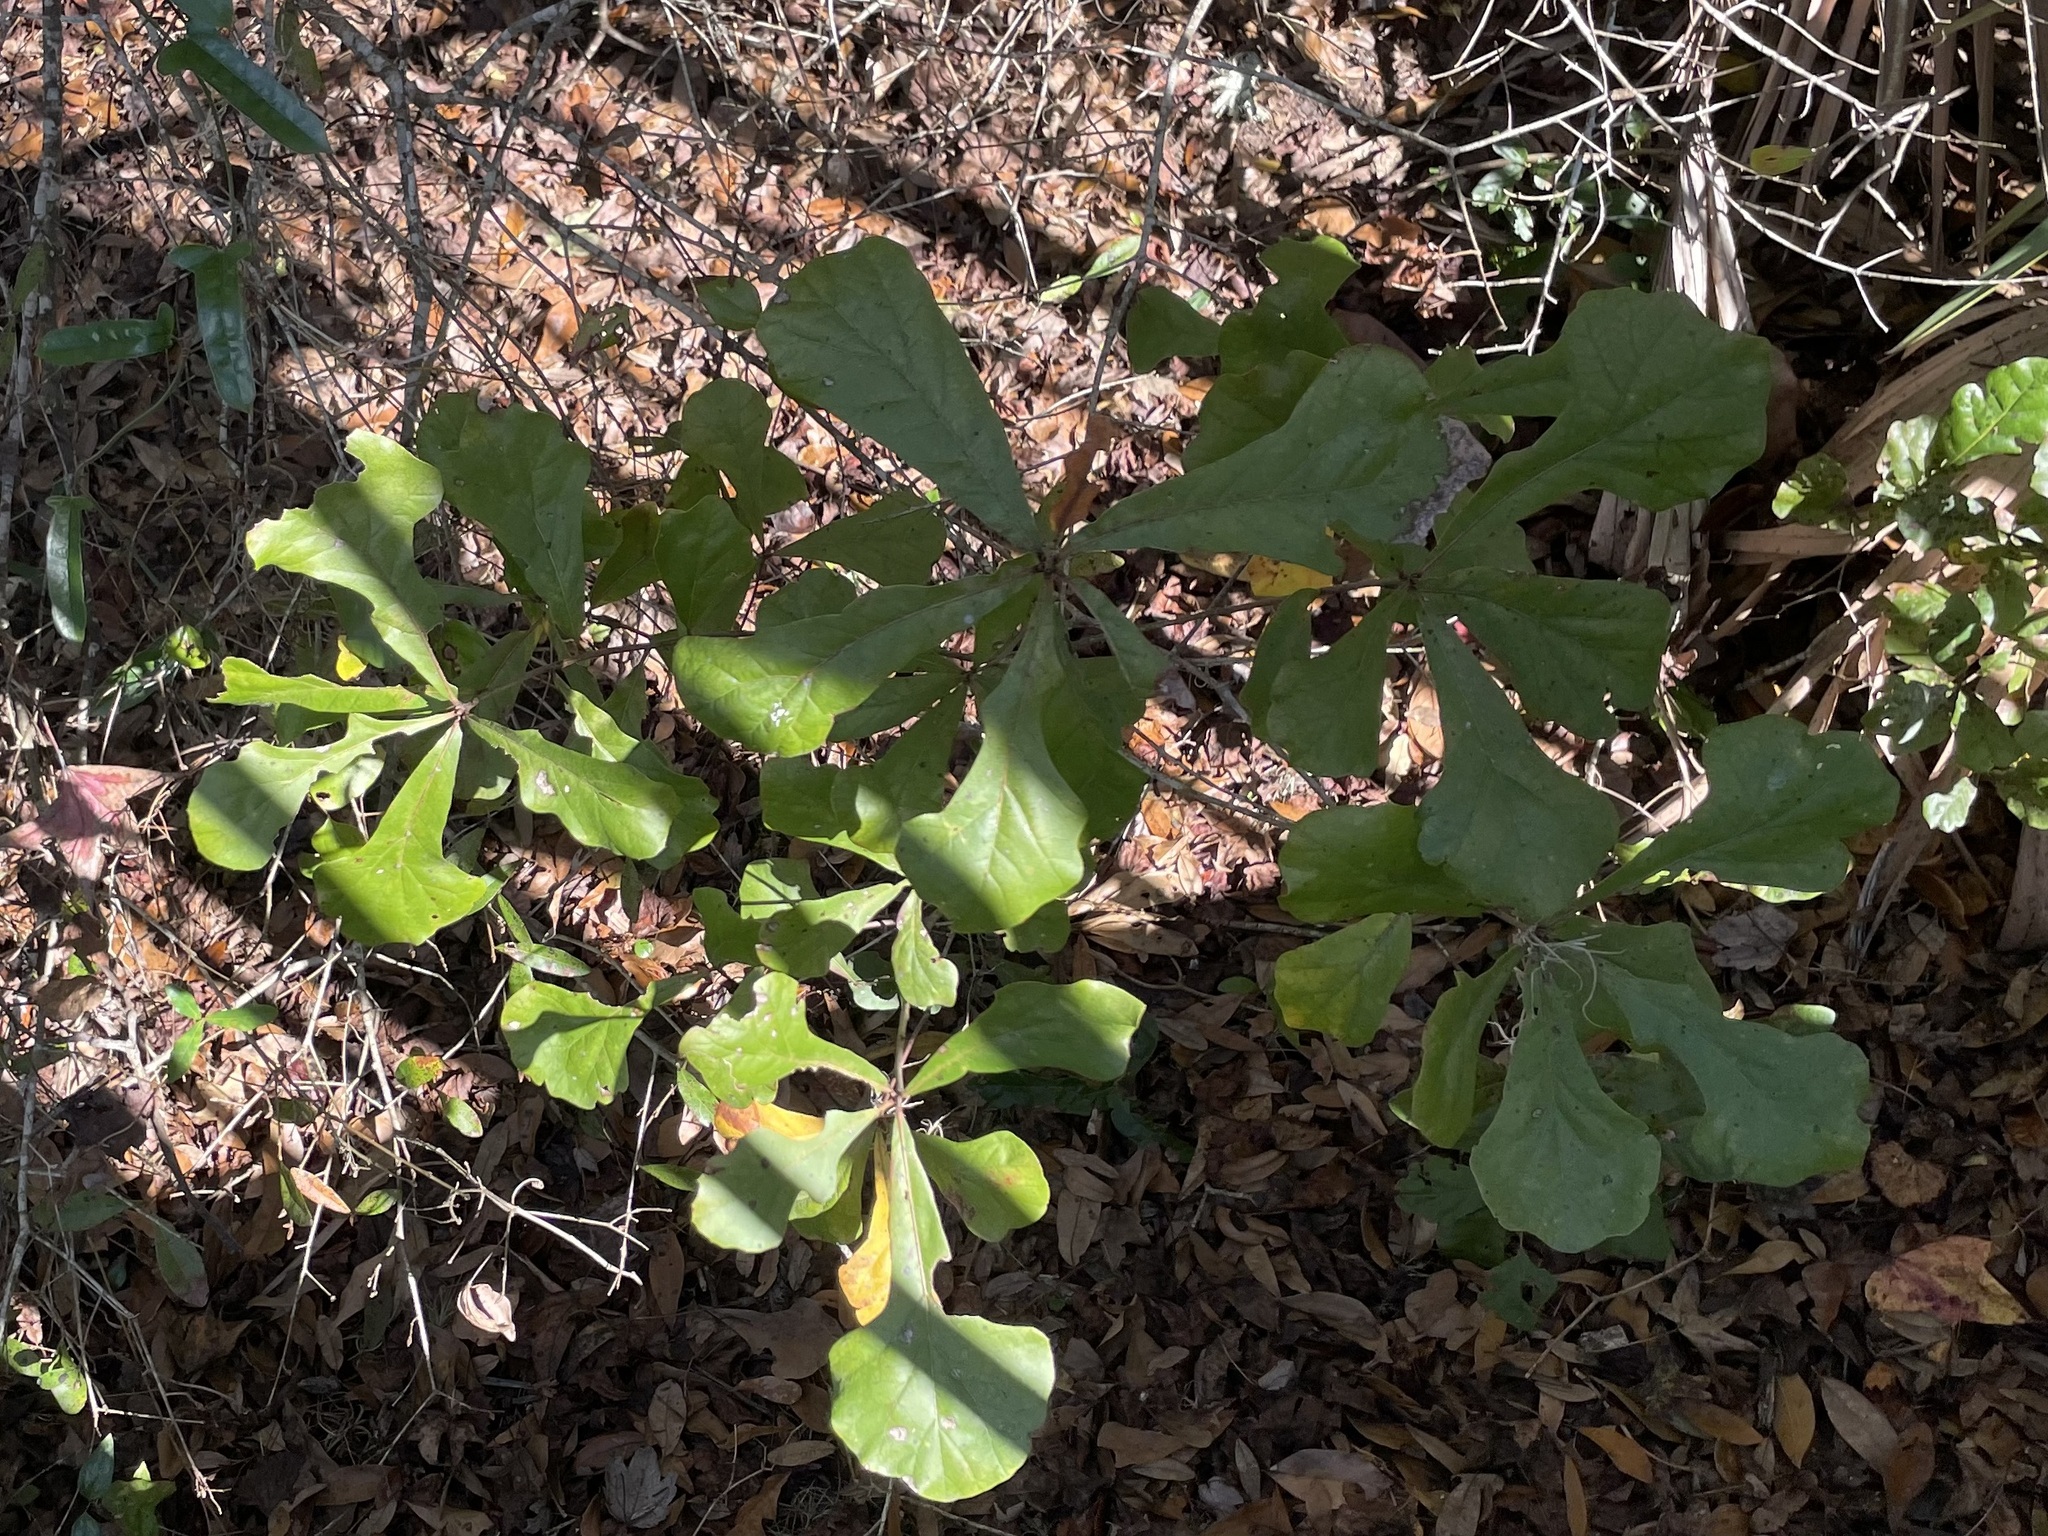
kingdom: Plantae
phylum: Tracheophyta
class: Magnoliopsida
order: Fagales
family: Fagaceae
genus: Quercus
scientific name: Quercus nigra
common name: Water oak
